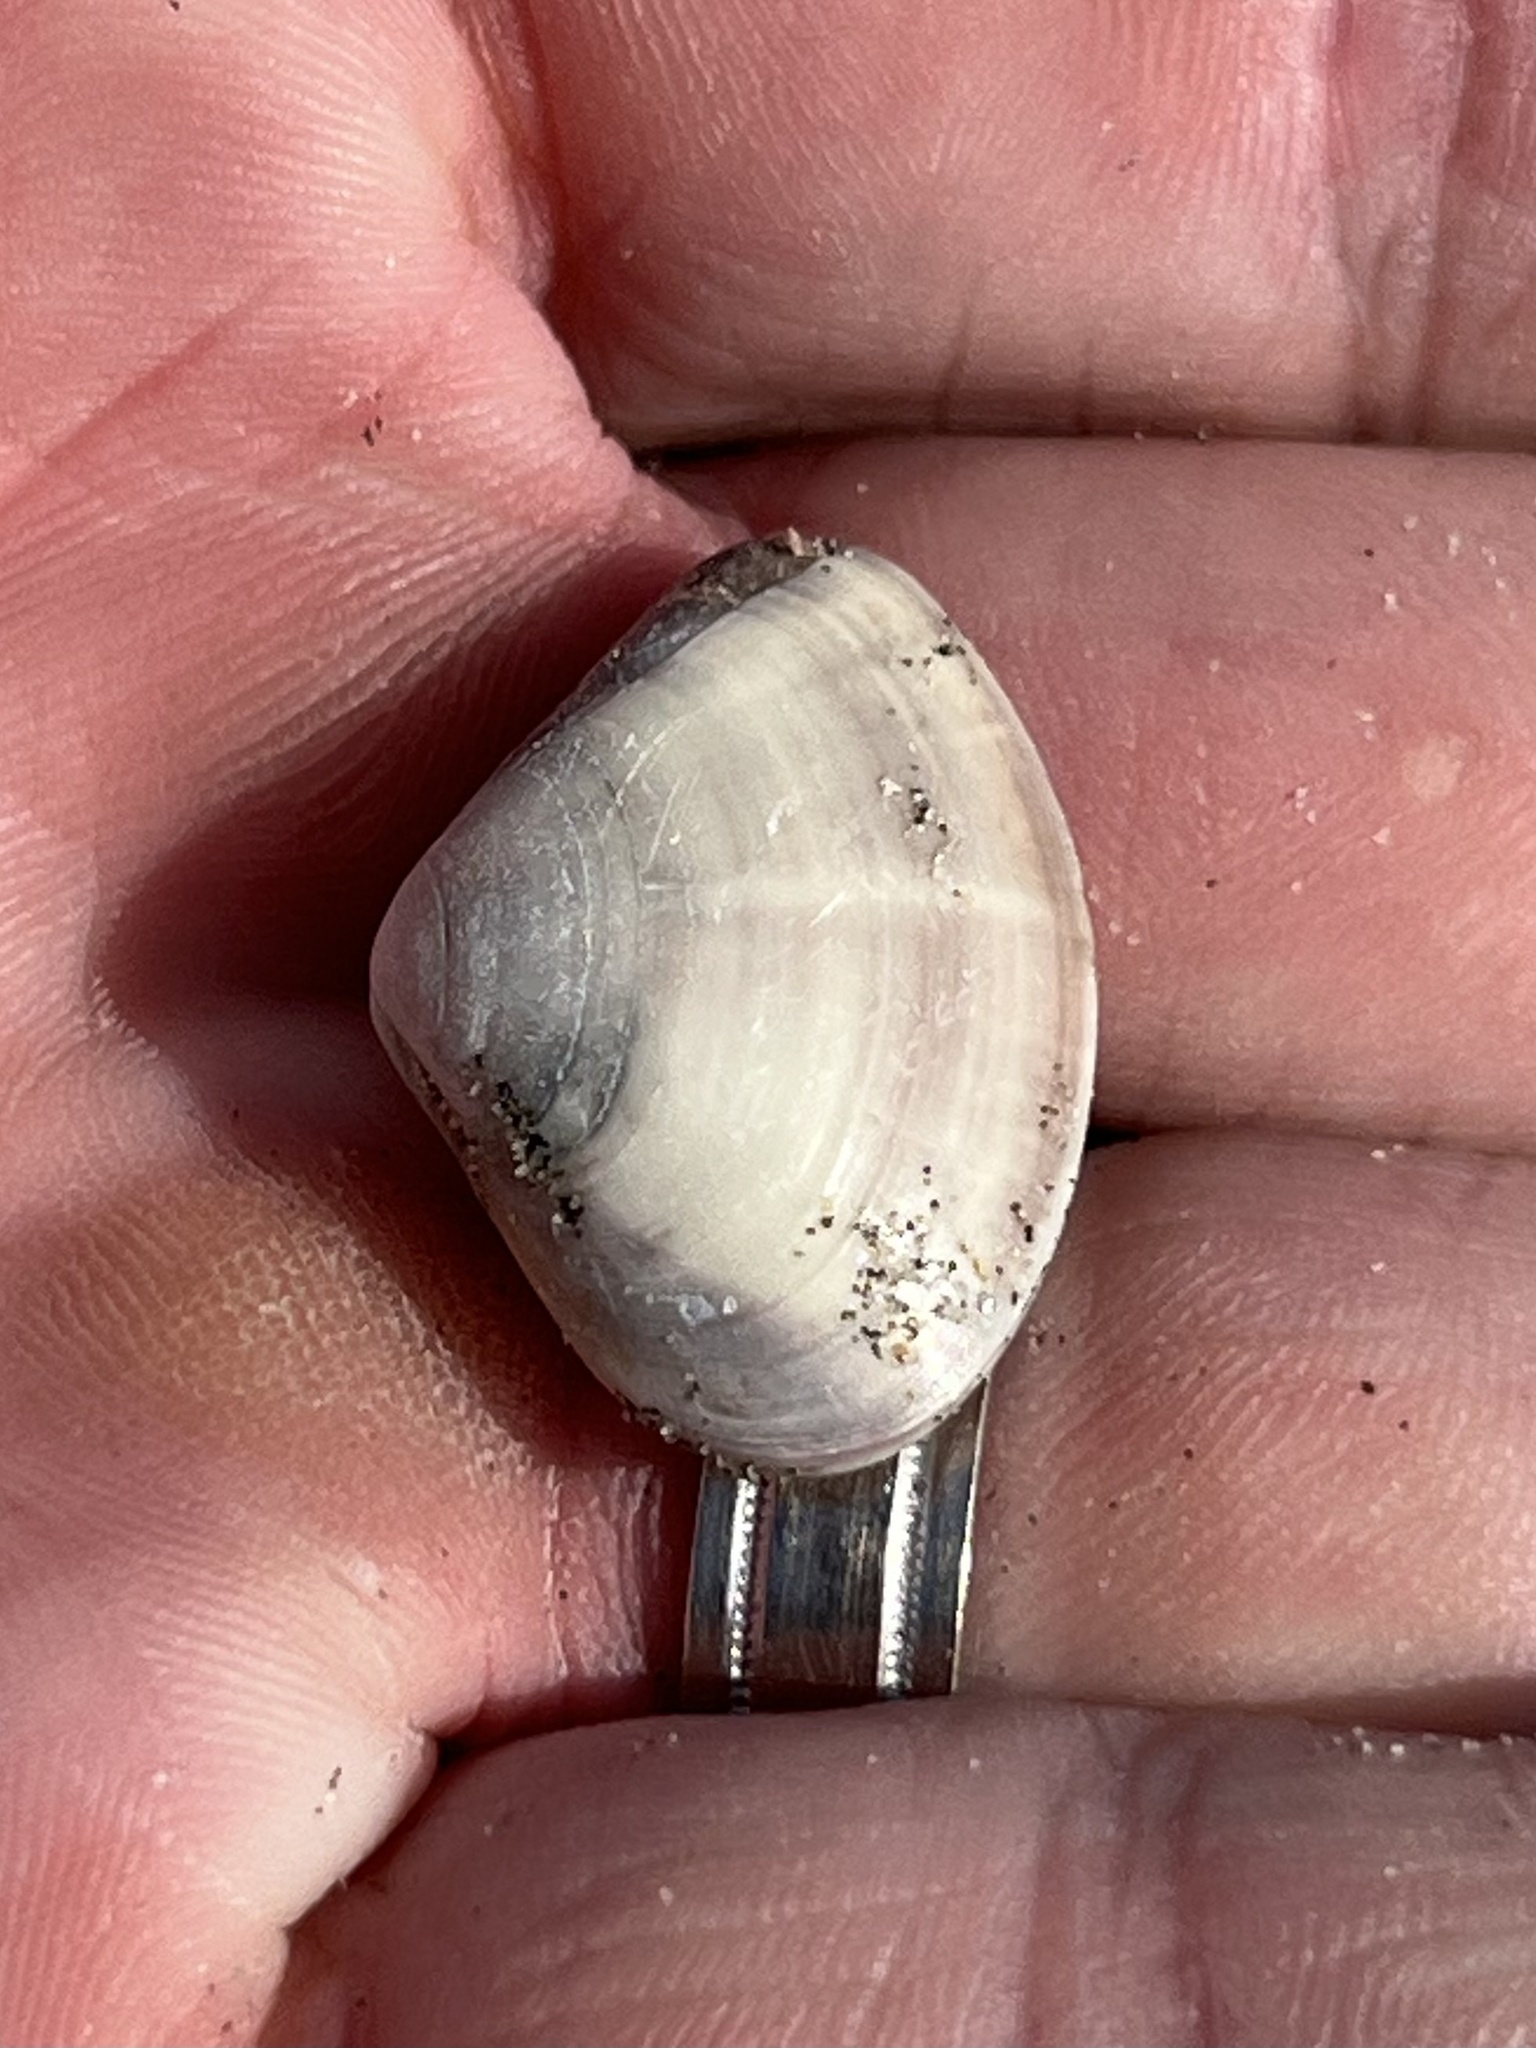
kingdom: Animalia
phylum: Mollusca
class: Bivalvia
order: Venerida
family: Veneridae
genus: Tivela
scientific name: Tivela stultorum
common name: Pismo clam
